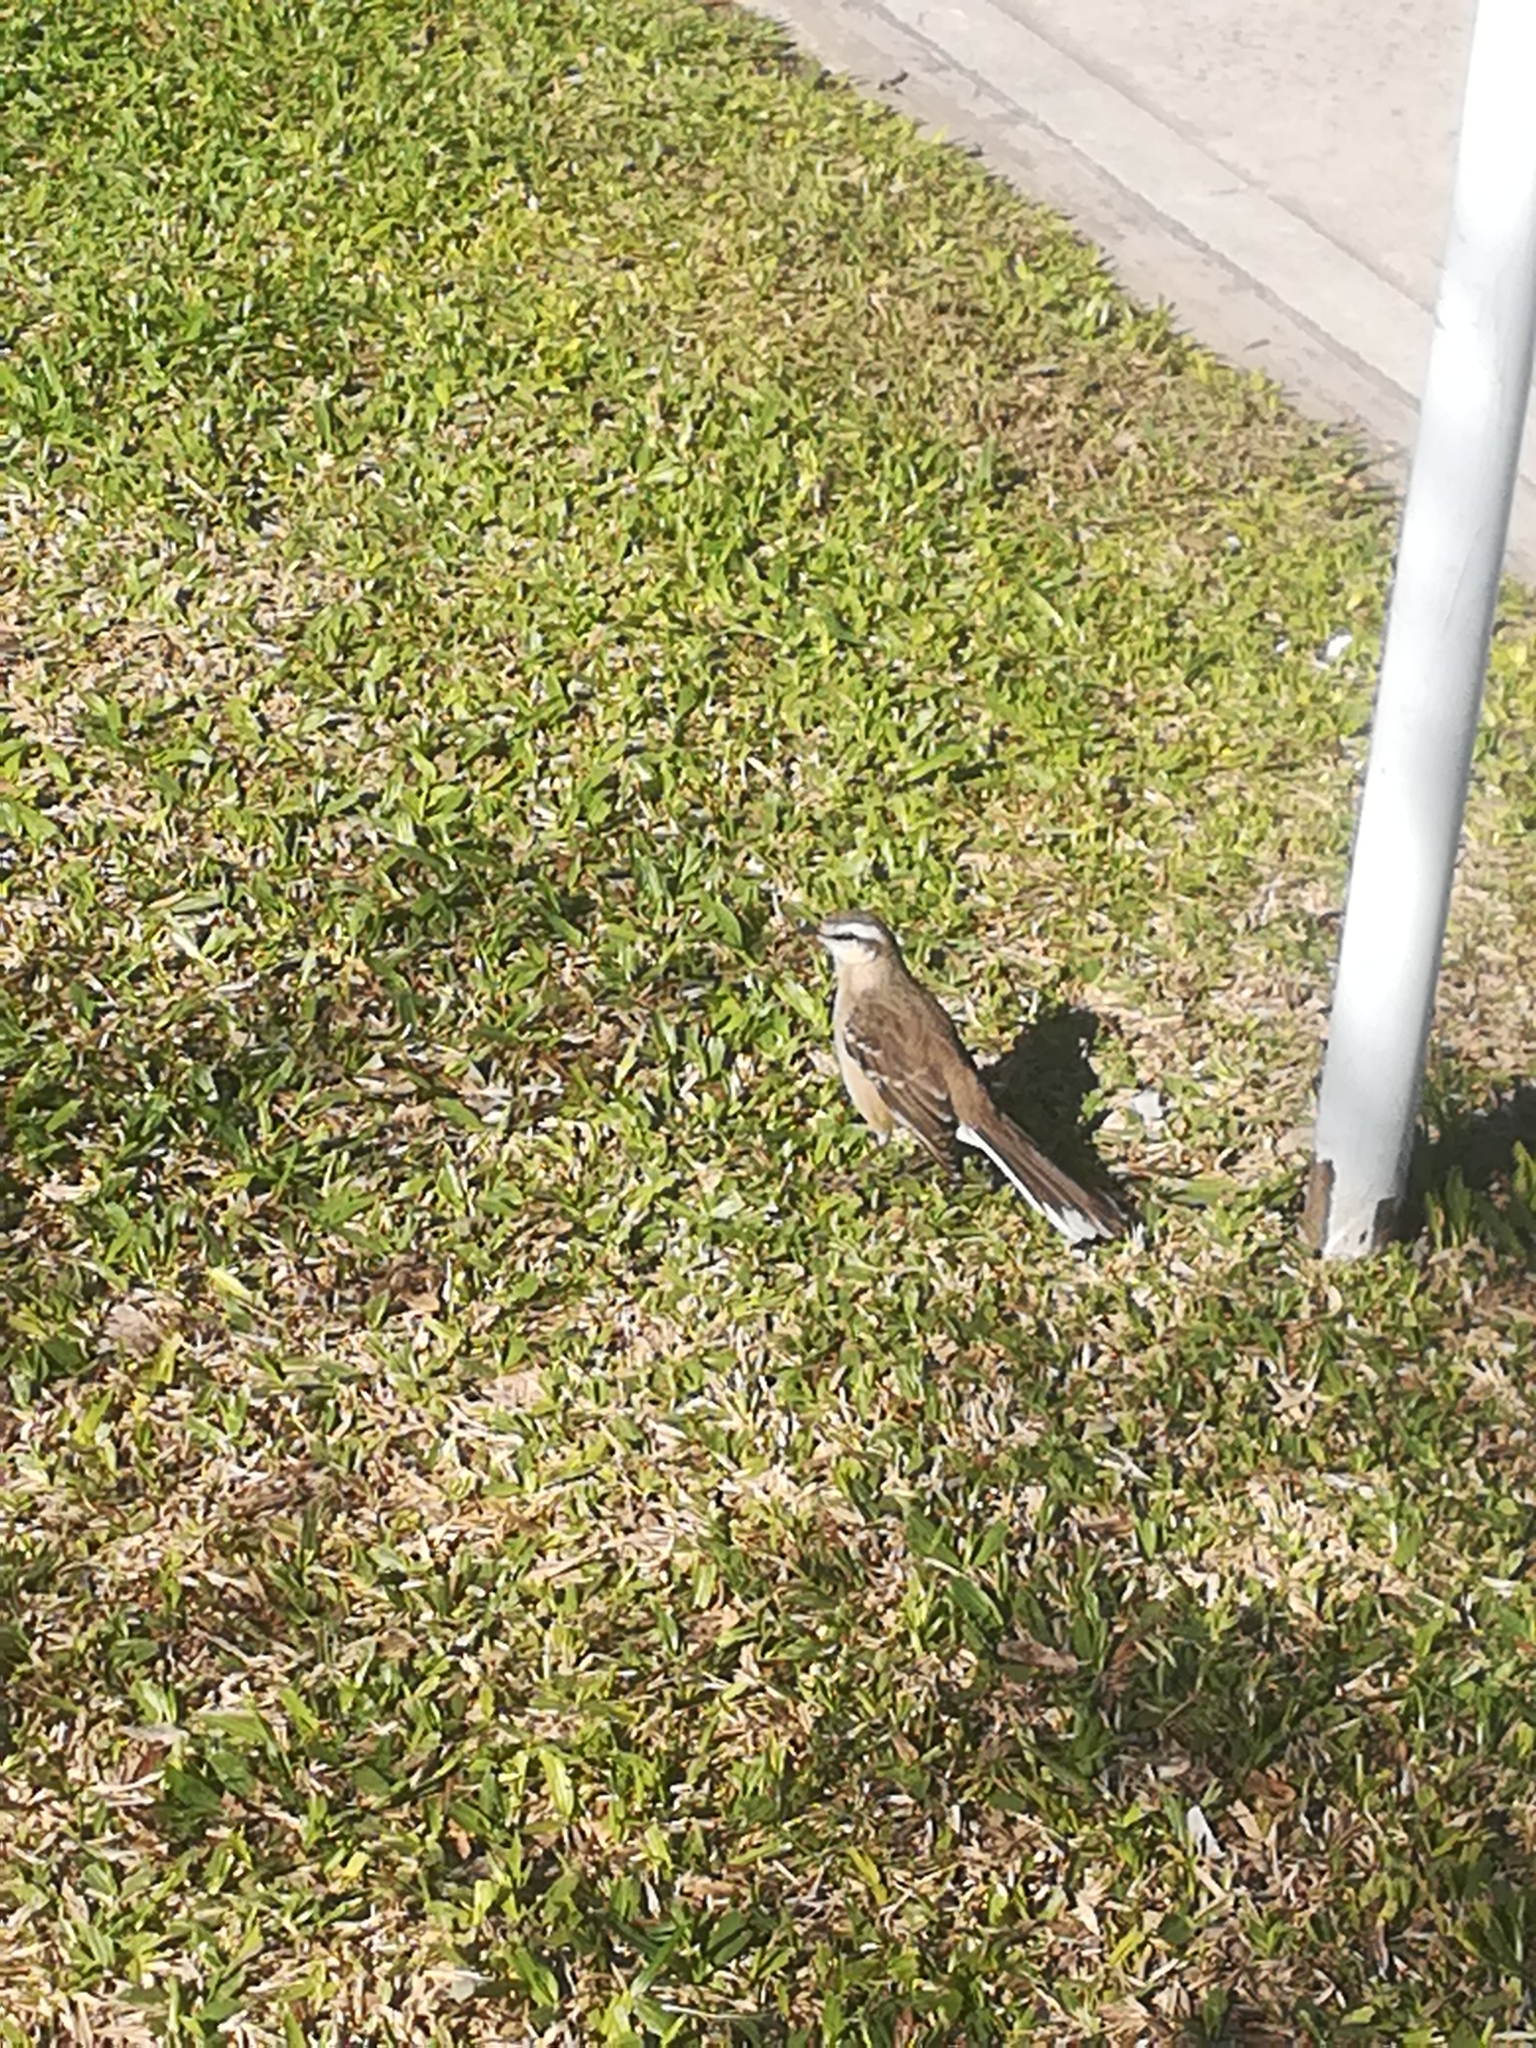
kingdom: Animalia
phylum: Chordata
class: Aves
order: Passeriformes
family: Mimidae
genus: Mimus
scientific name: Mimus saturninus
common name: Chalk-browed mockingbird
